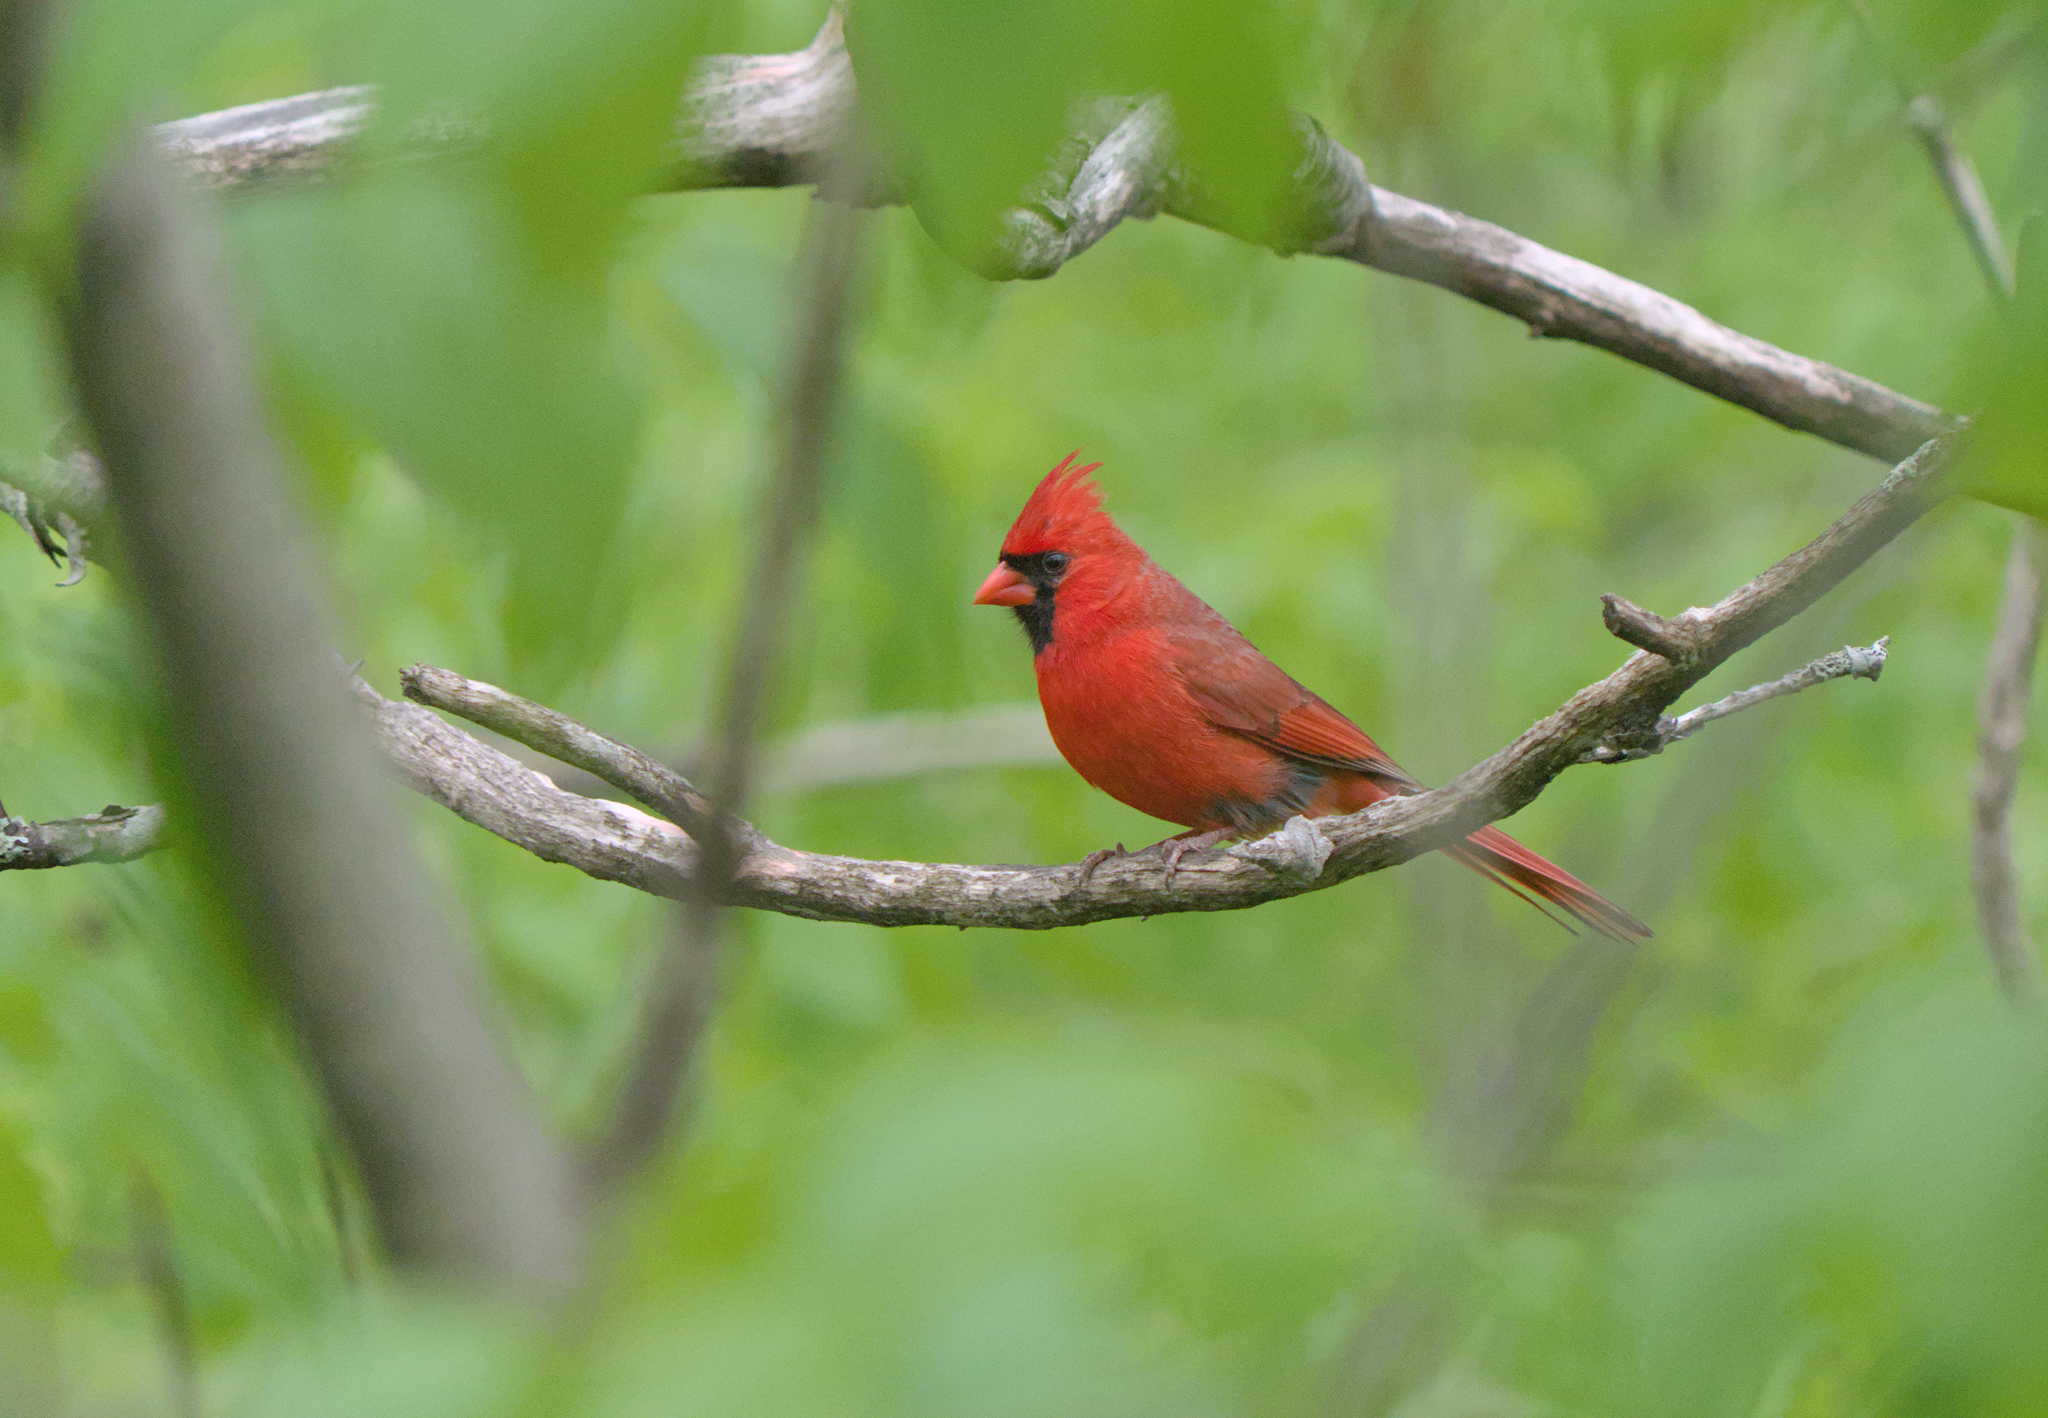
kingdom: Animalia
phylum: Chordata
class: Aves
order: Passeriformes
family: Cardinalidae
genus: Cardinalis
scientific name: Cardinalis cardinalis
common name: Northern cardinal
